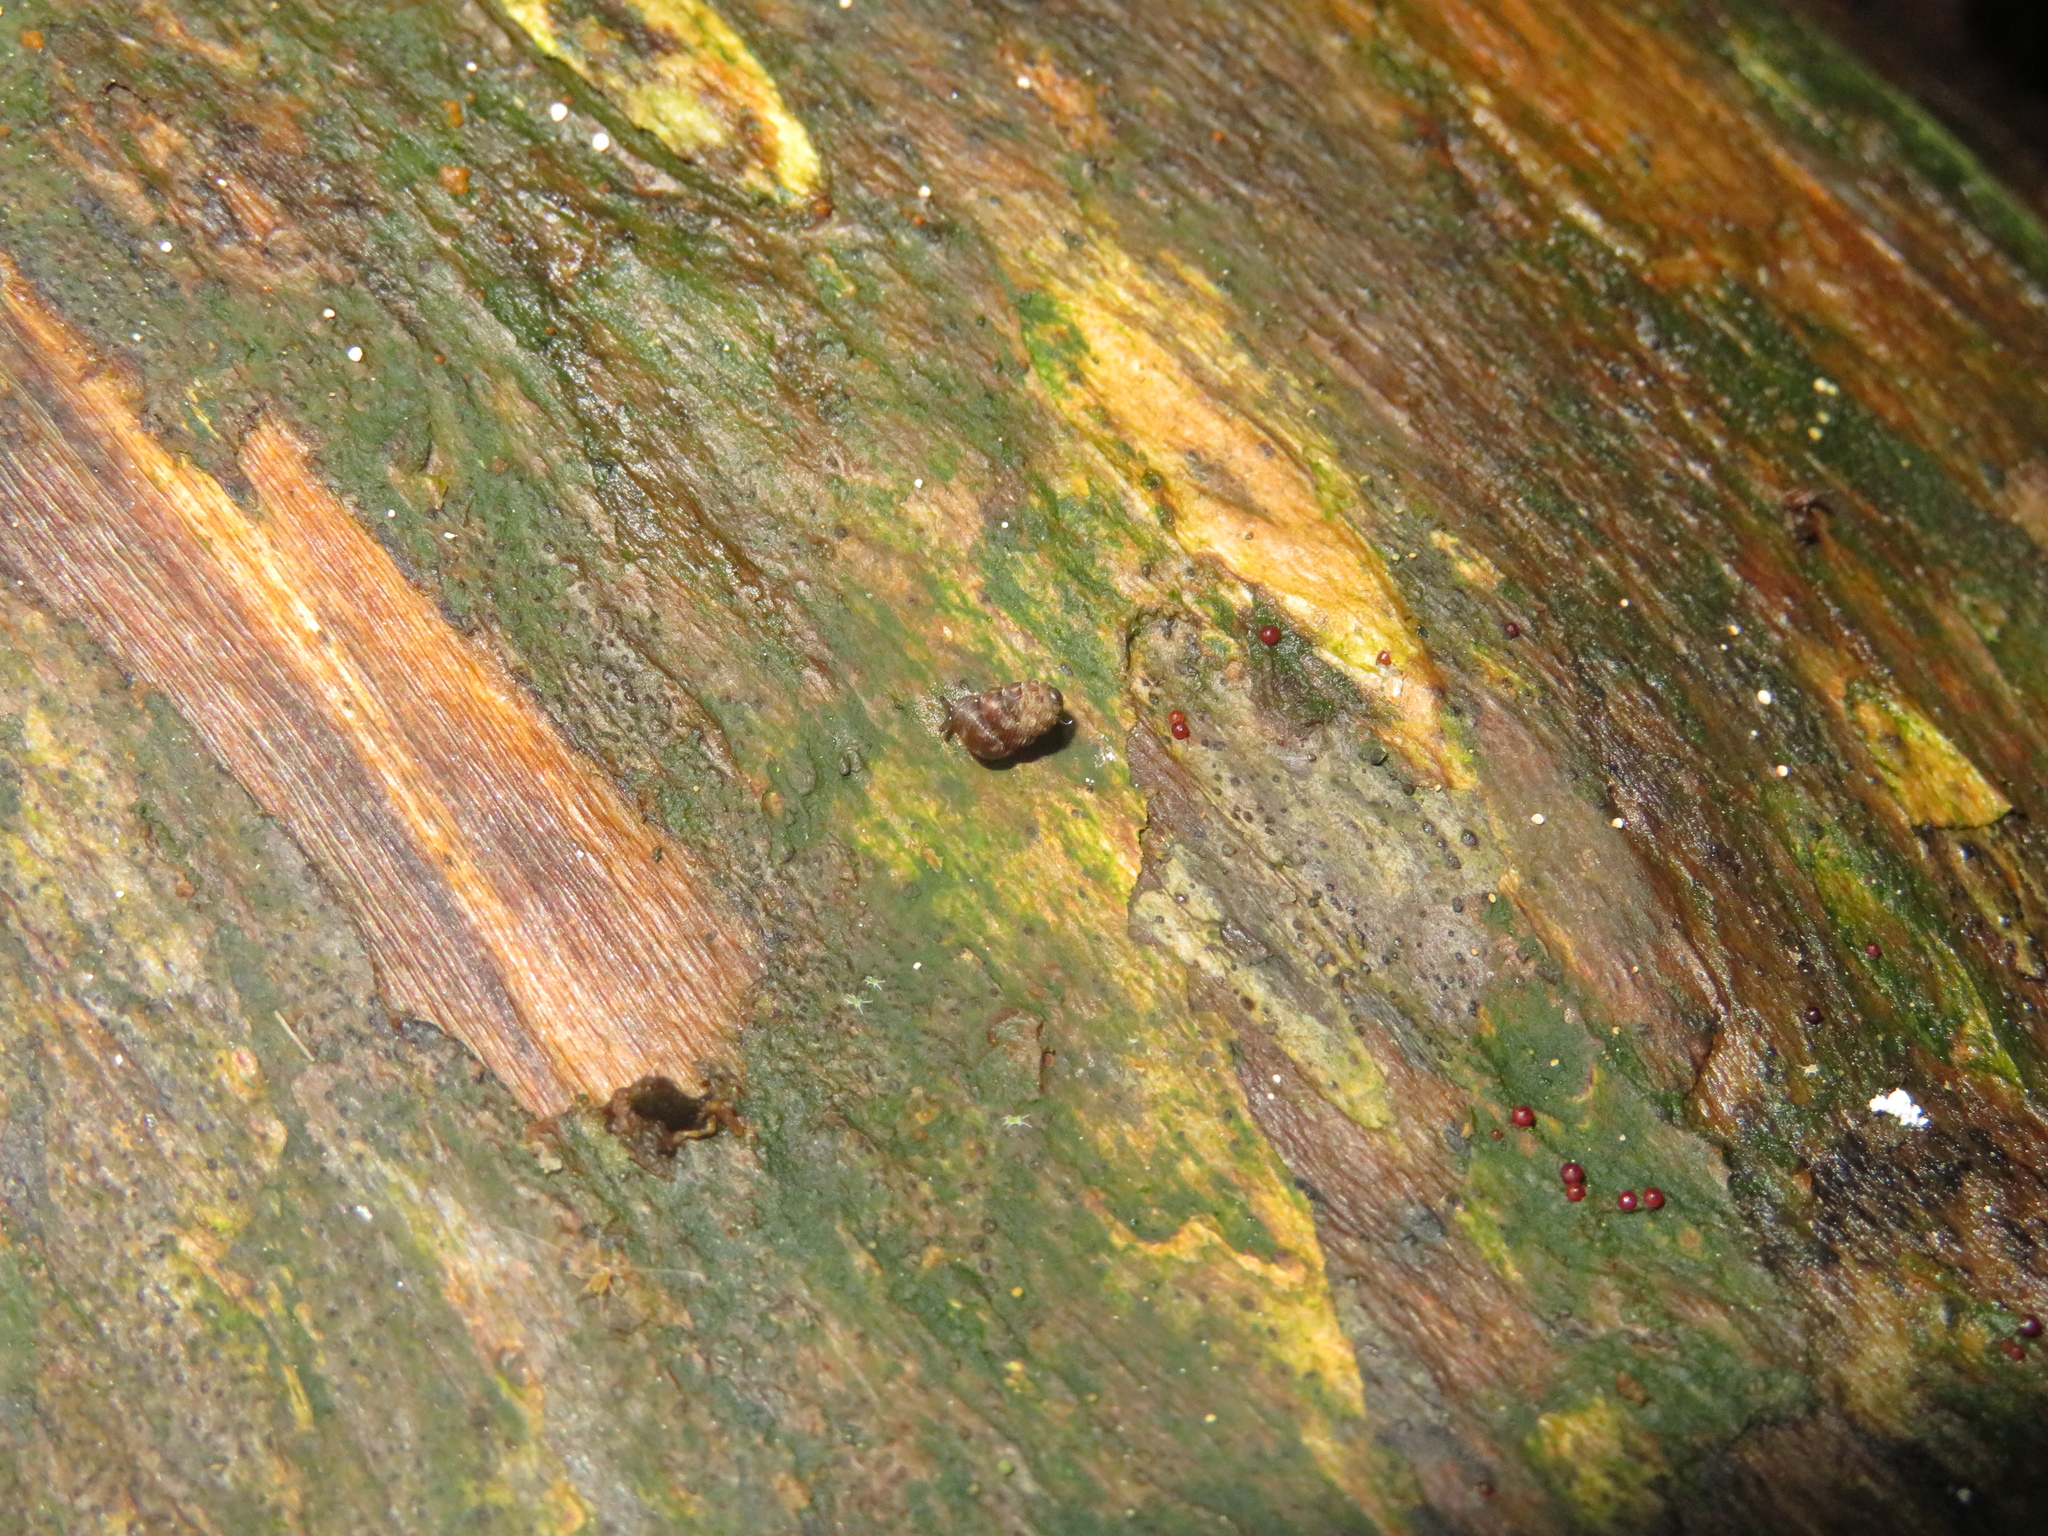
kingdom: Animalia
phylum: Mollusca
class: Gastropoda
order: Stylommatophora
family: Charopidae
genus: Phenacharopa
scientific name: Phenacharopa novoseelandica
